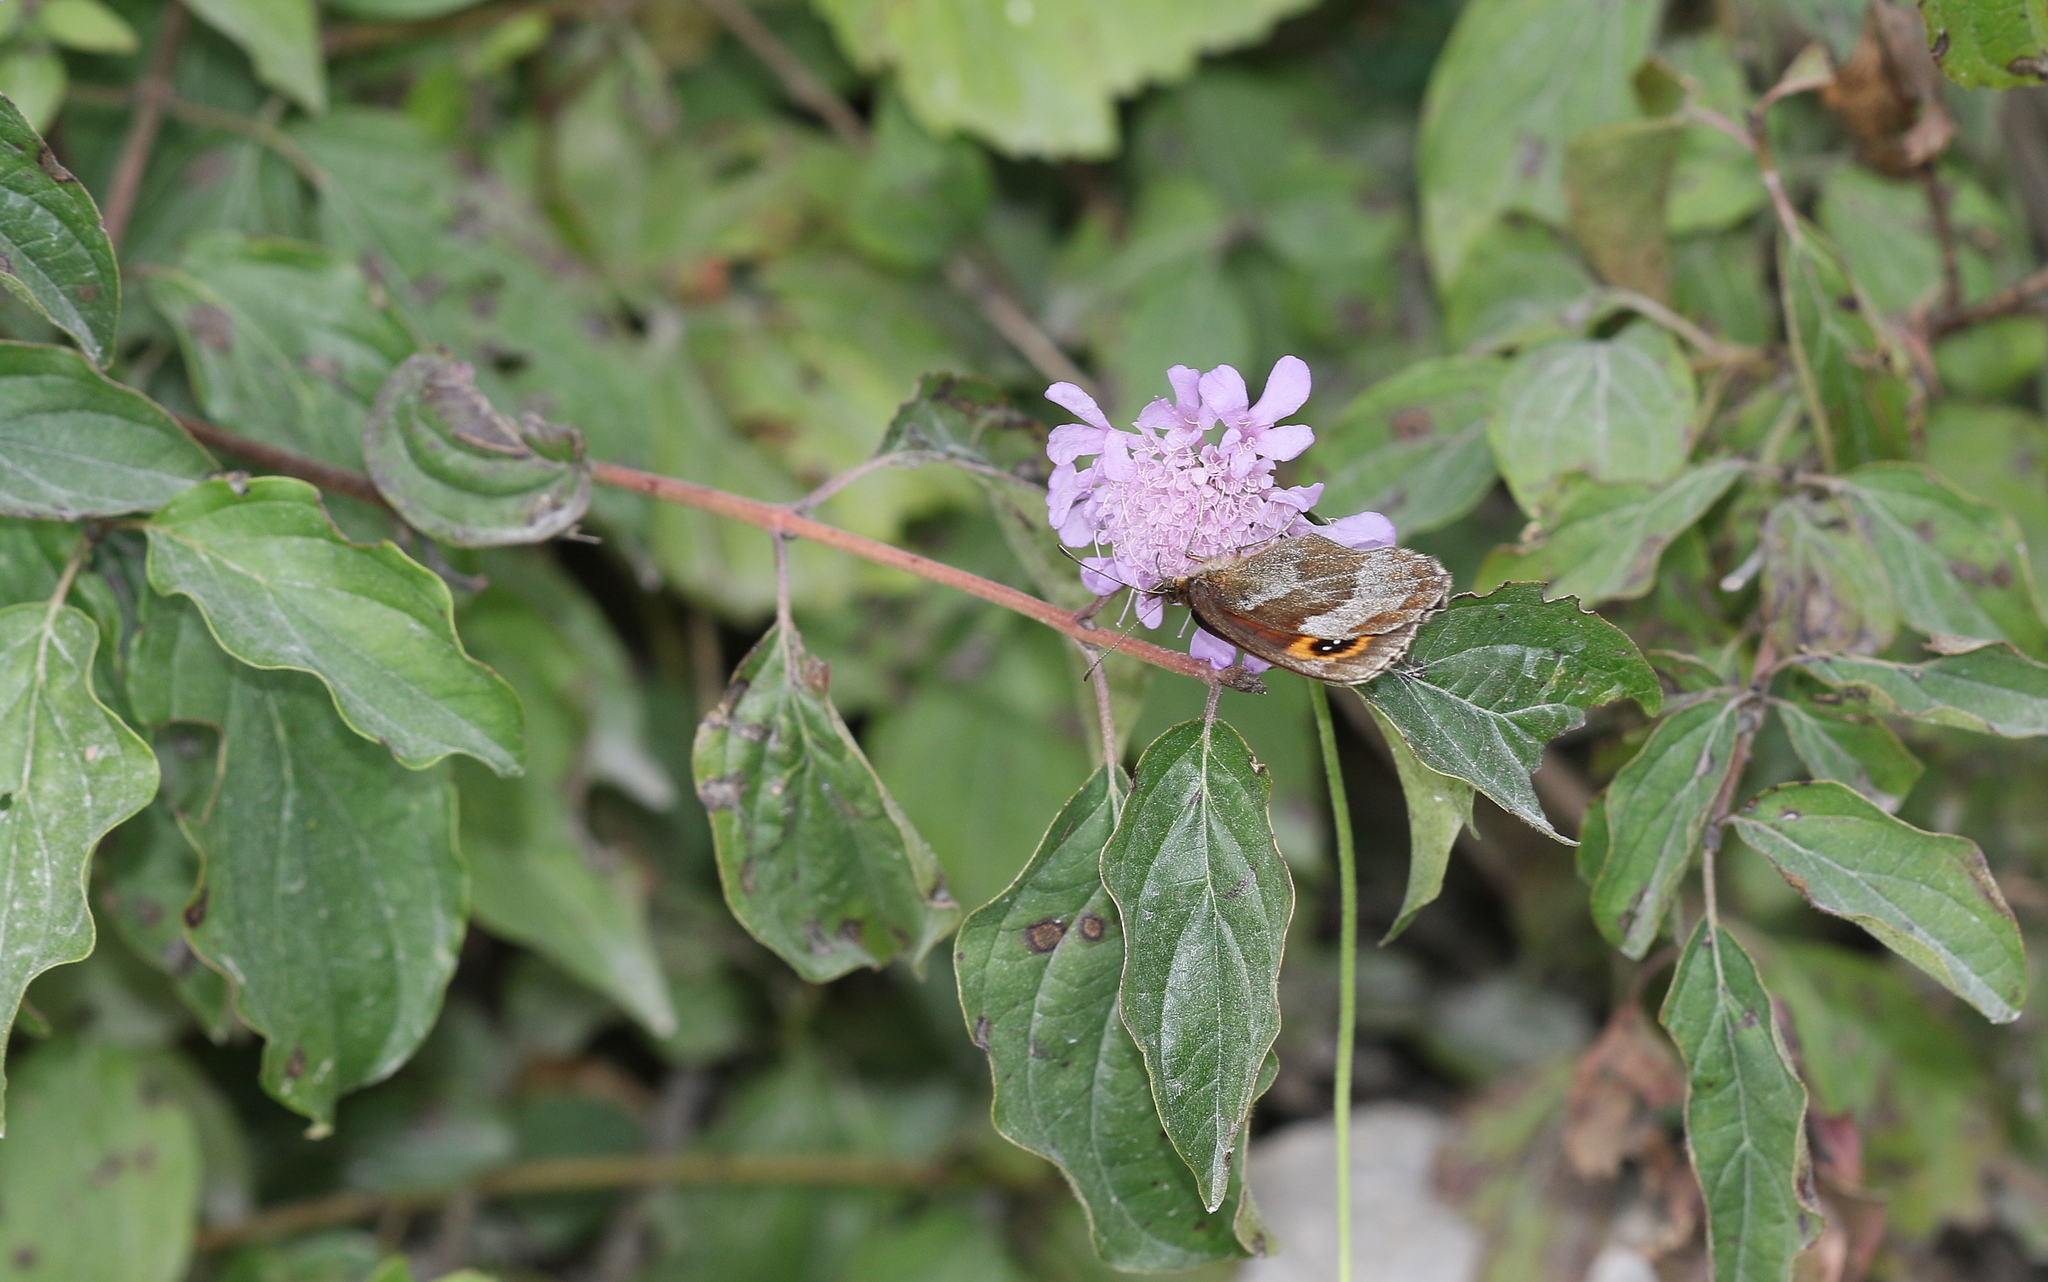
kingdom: Animalia
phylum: Arthropoda
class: Insecta
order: Lepidoptera
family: Nymphalidae
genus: Erebia
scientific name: Erebia aethiops
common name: Scotch argus
